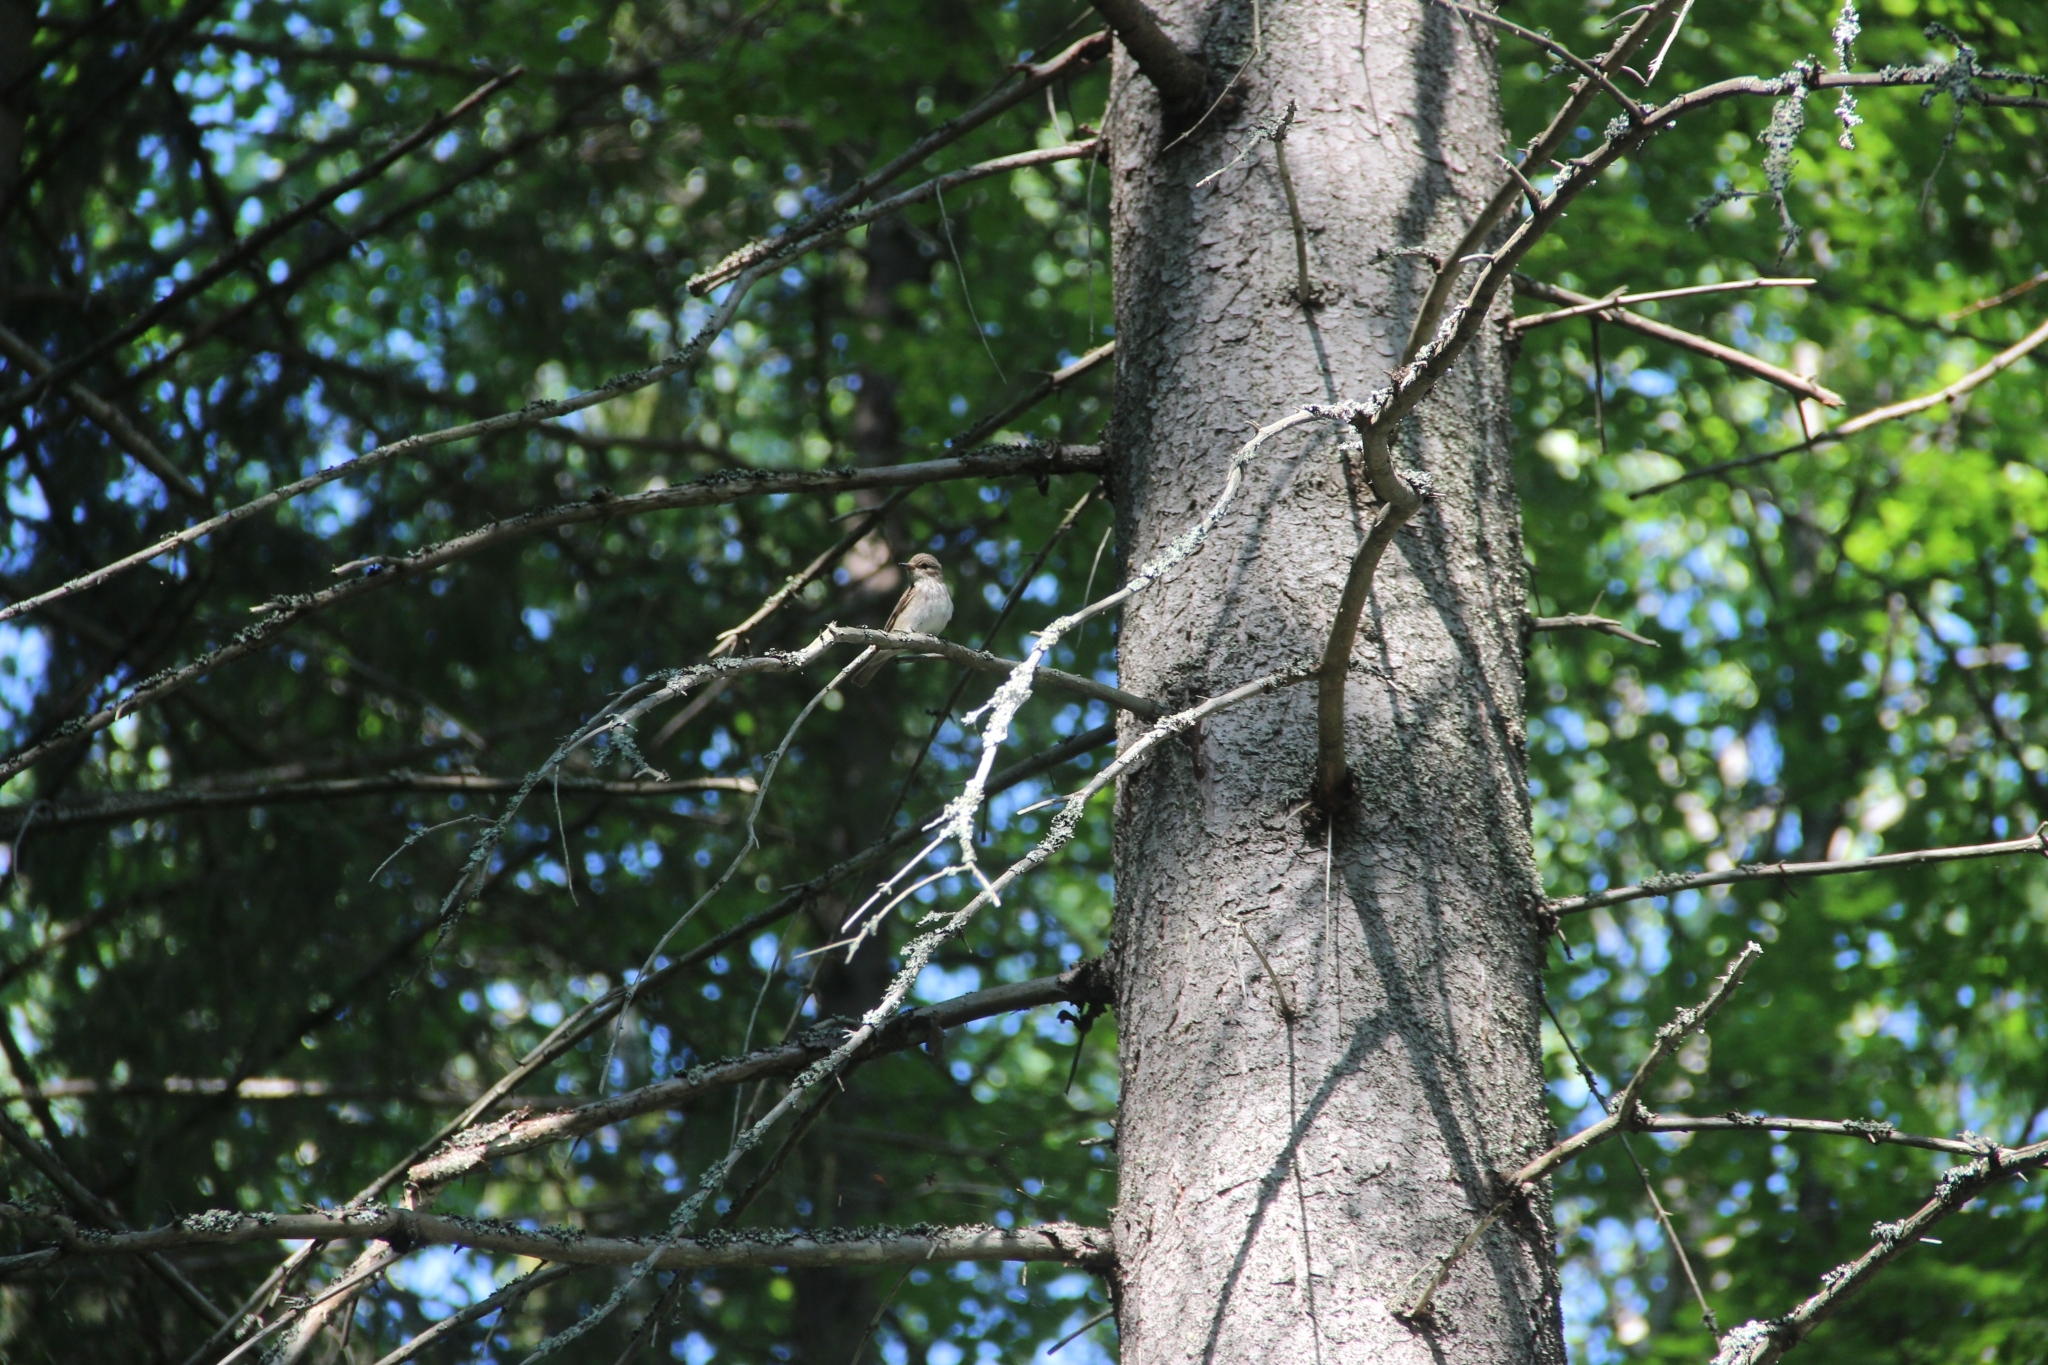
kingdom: Animalia
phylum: Chordata
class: Aves
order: Passeriformes
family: Muscicapidae
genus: Muscicapa
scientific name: Muscicapa striata
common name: Spotted flycatcher
